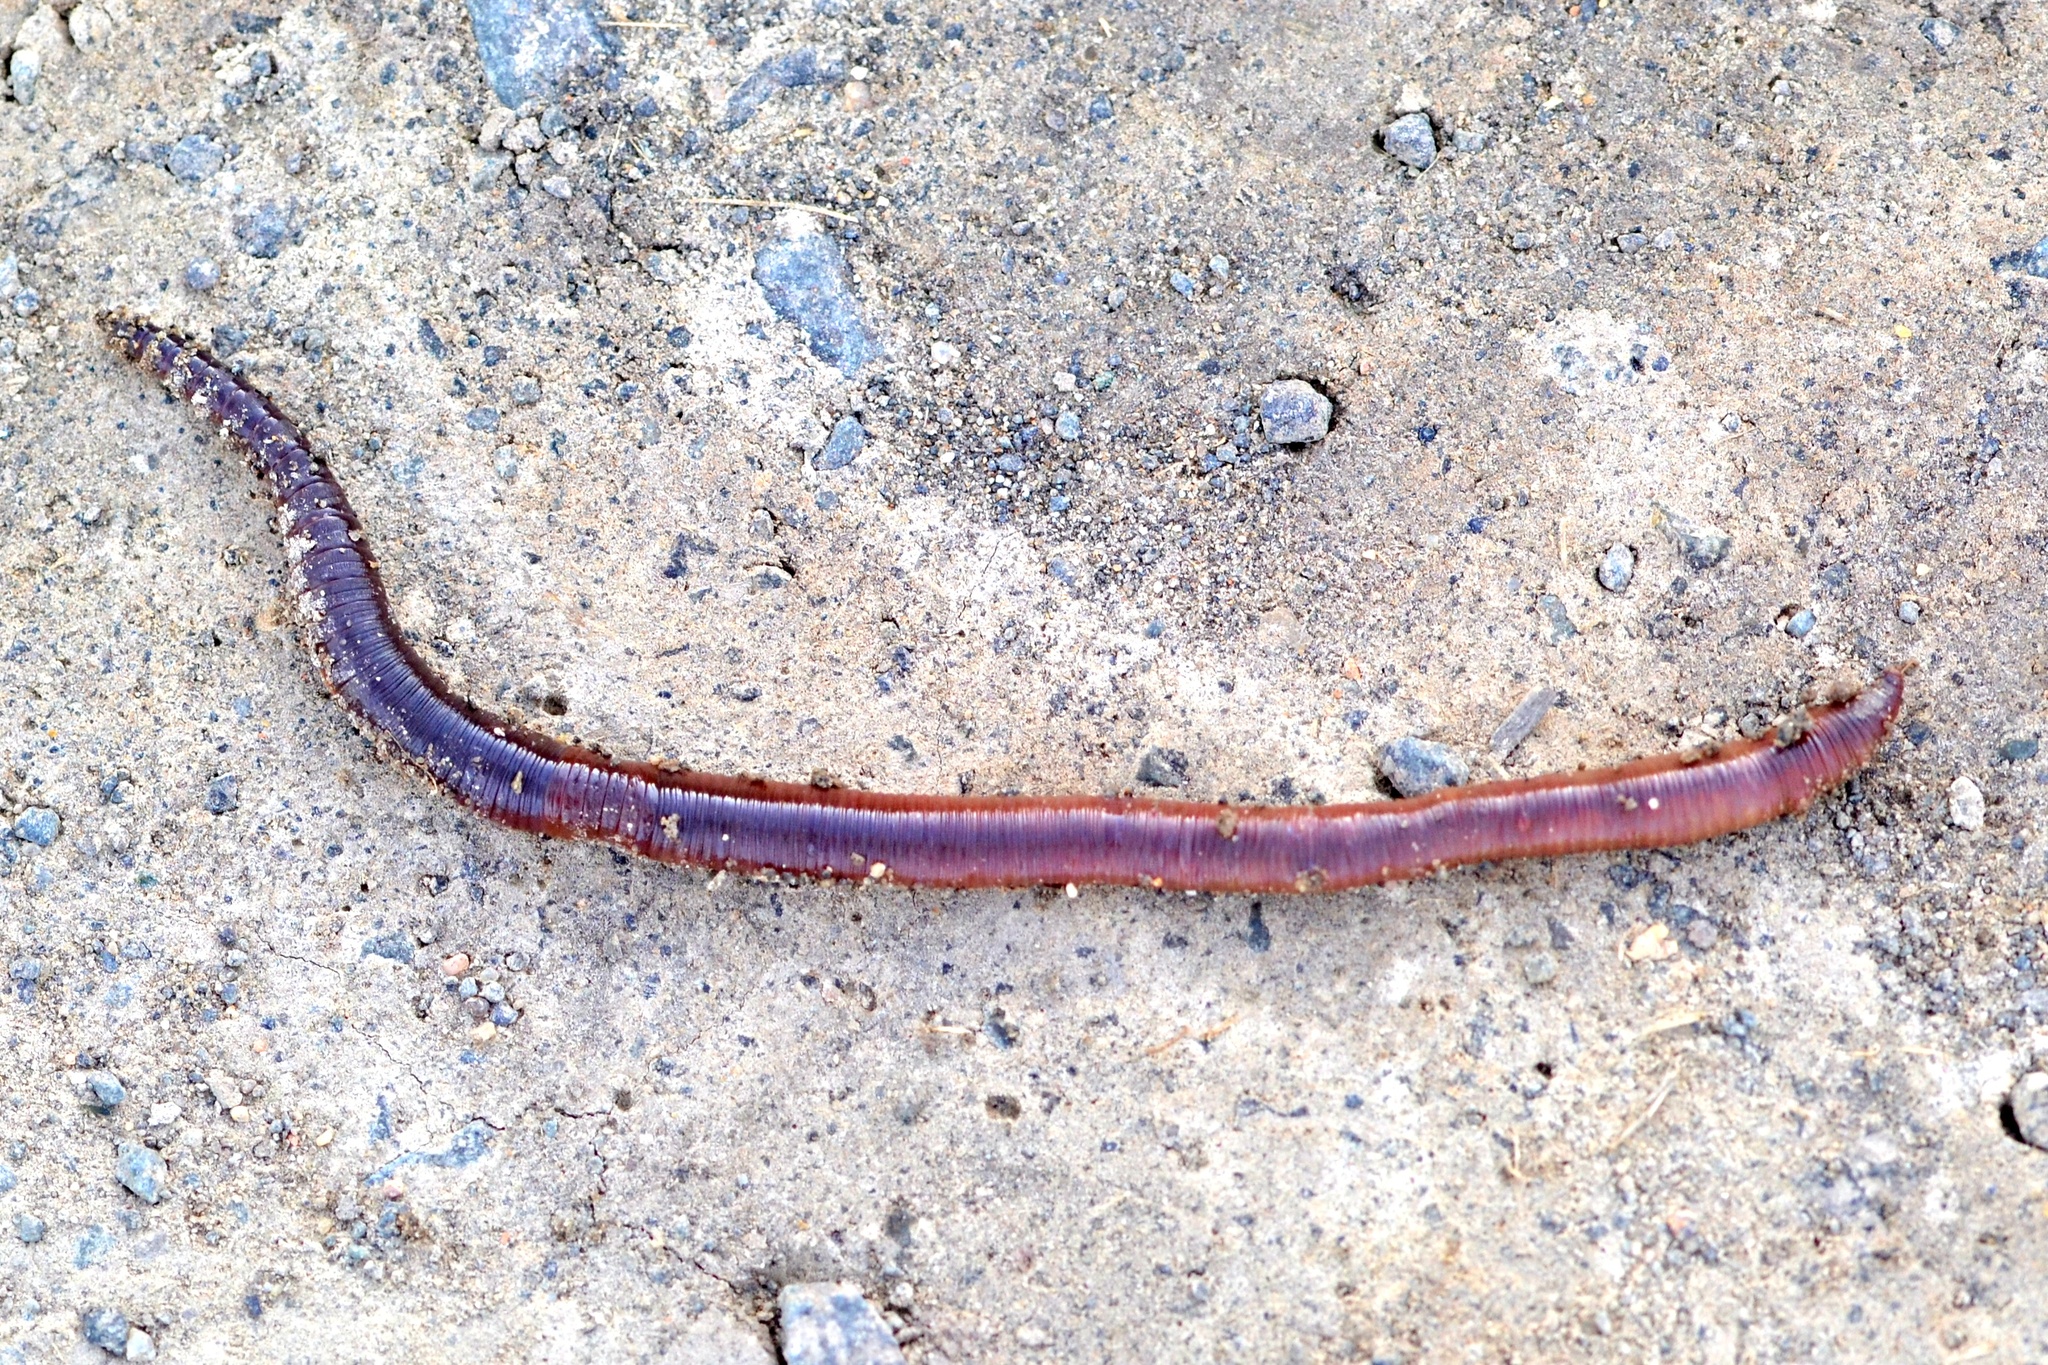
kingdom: Animalia
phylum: Annelida
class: Clitellata
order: Crassiclitellata
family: Lumbricidae
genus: Lumbricus
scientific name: Lumbricus terrestris
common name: Common earthworm
